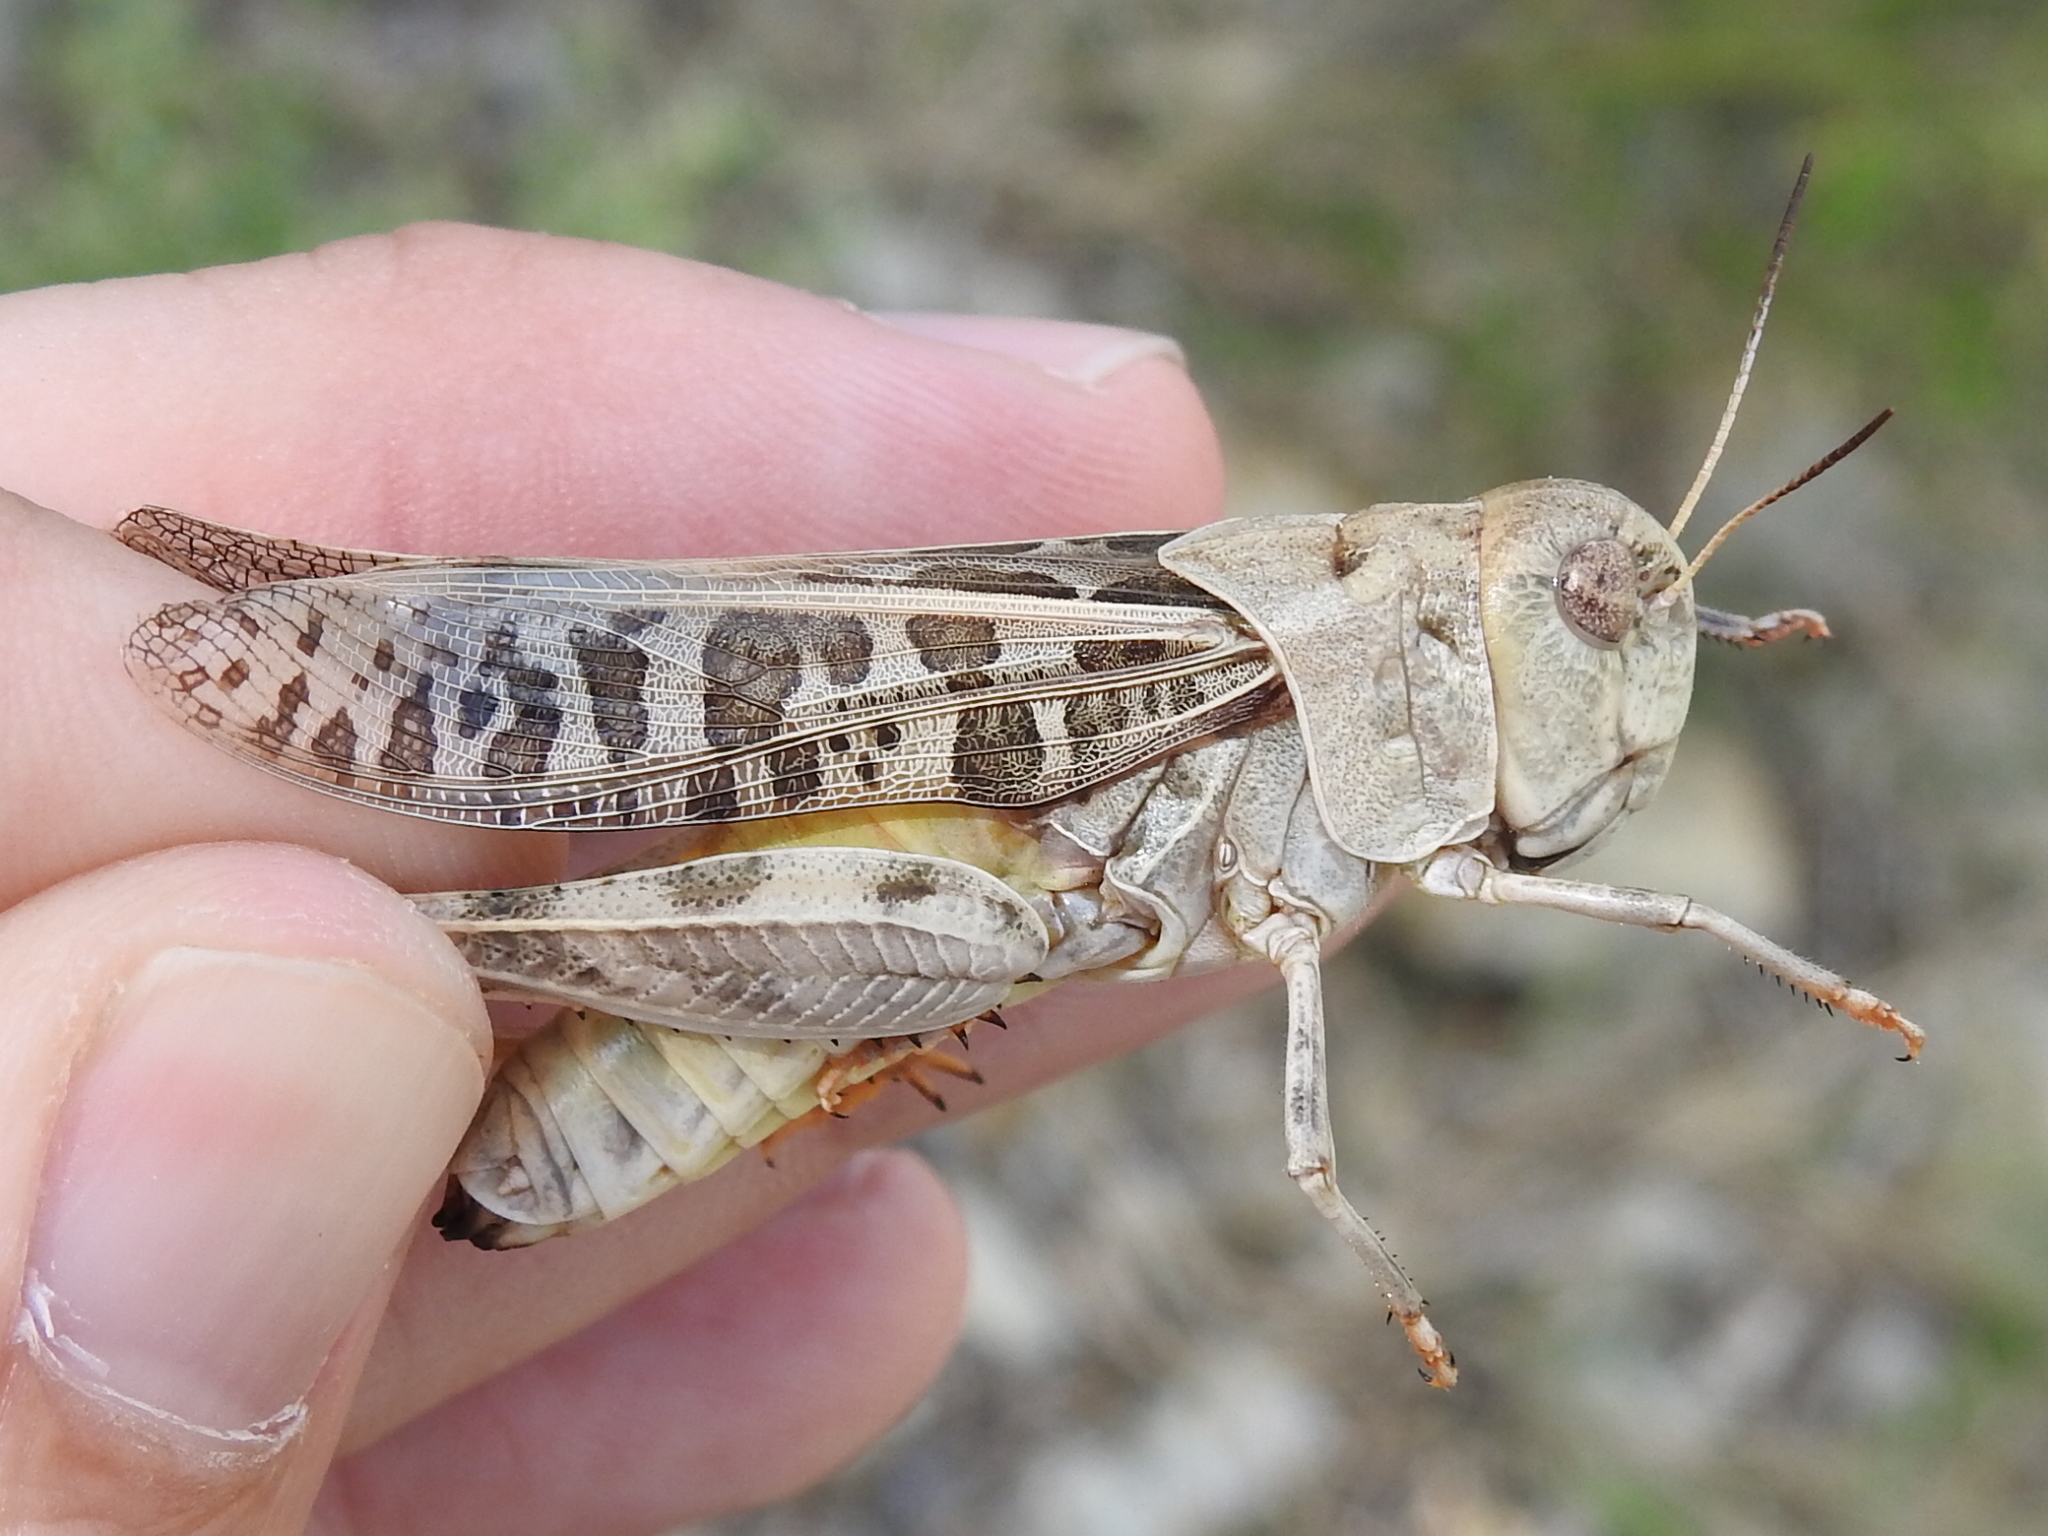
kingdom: Animalia
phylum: Arthropoda
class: Insecta
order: Orthoptera
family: Acrididae
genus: Hippiscus
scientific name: Hippiscus ocelote
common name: Wrinkled grasshopper
